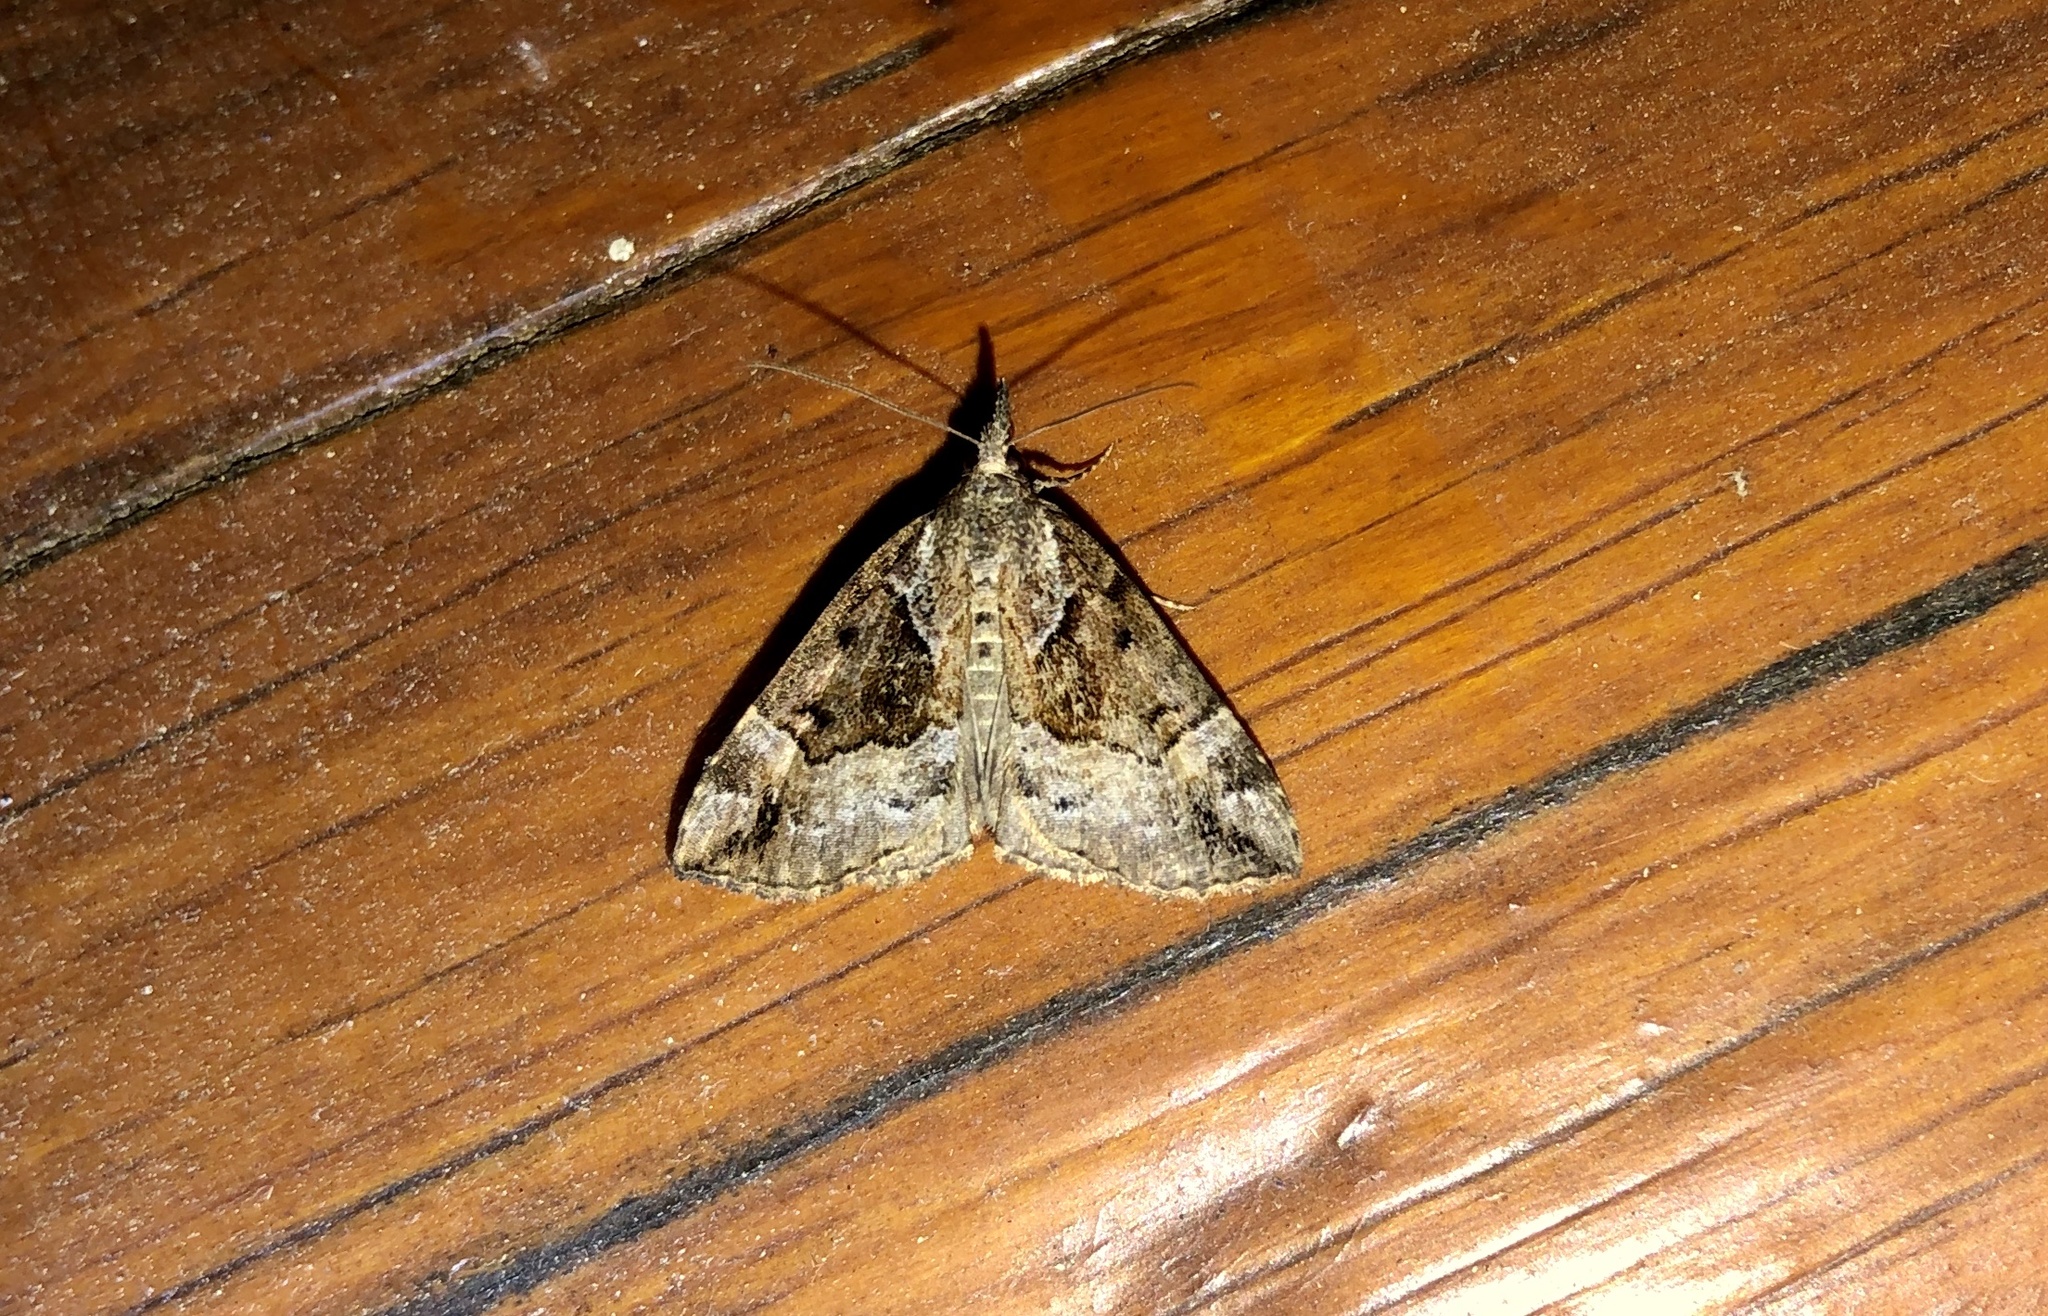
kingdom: Animalia
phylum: Arthropoda
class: Insecta
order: Lepidoptera
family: Erebidae
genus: Hypena
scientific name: Hypena palparia
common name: Mottled bomolocha moth
